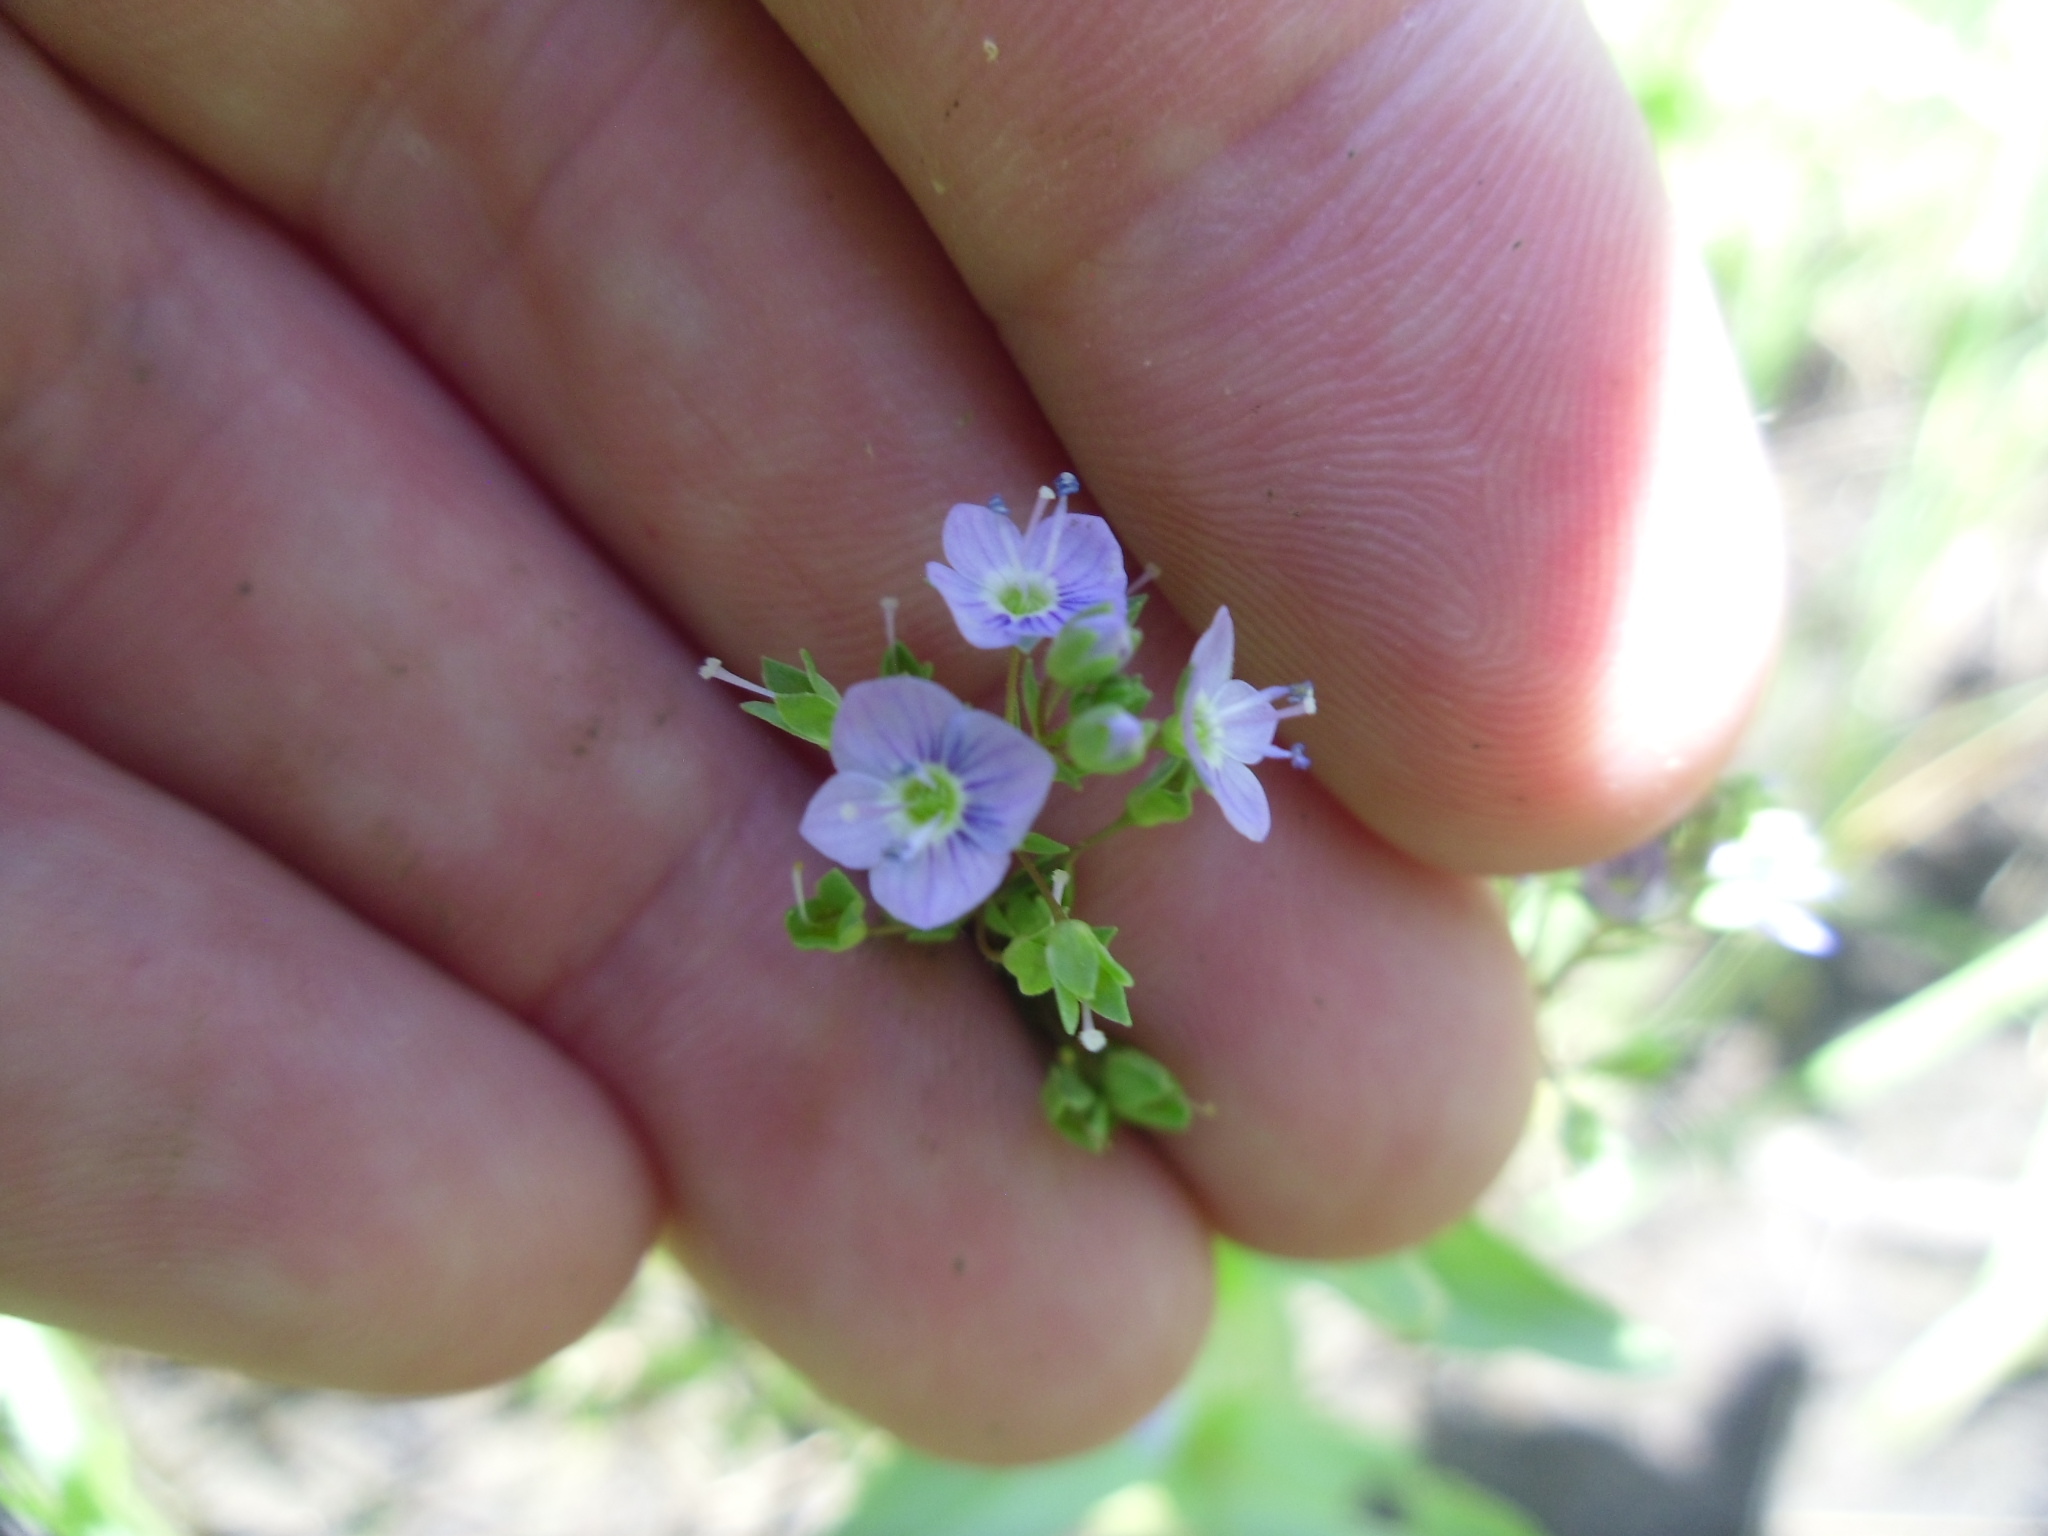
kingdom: Plantae
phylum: Tracheophyta
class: Magnoliopsida
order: Lamiales
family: Plantaginaceae
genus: Veronica
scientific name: Veronica catenata
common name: Pink water-speedwell
